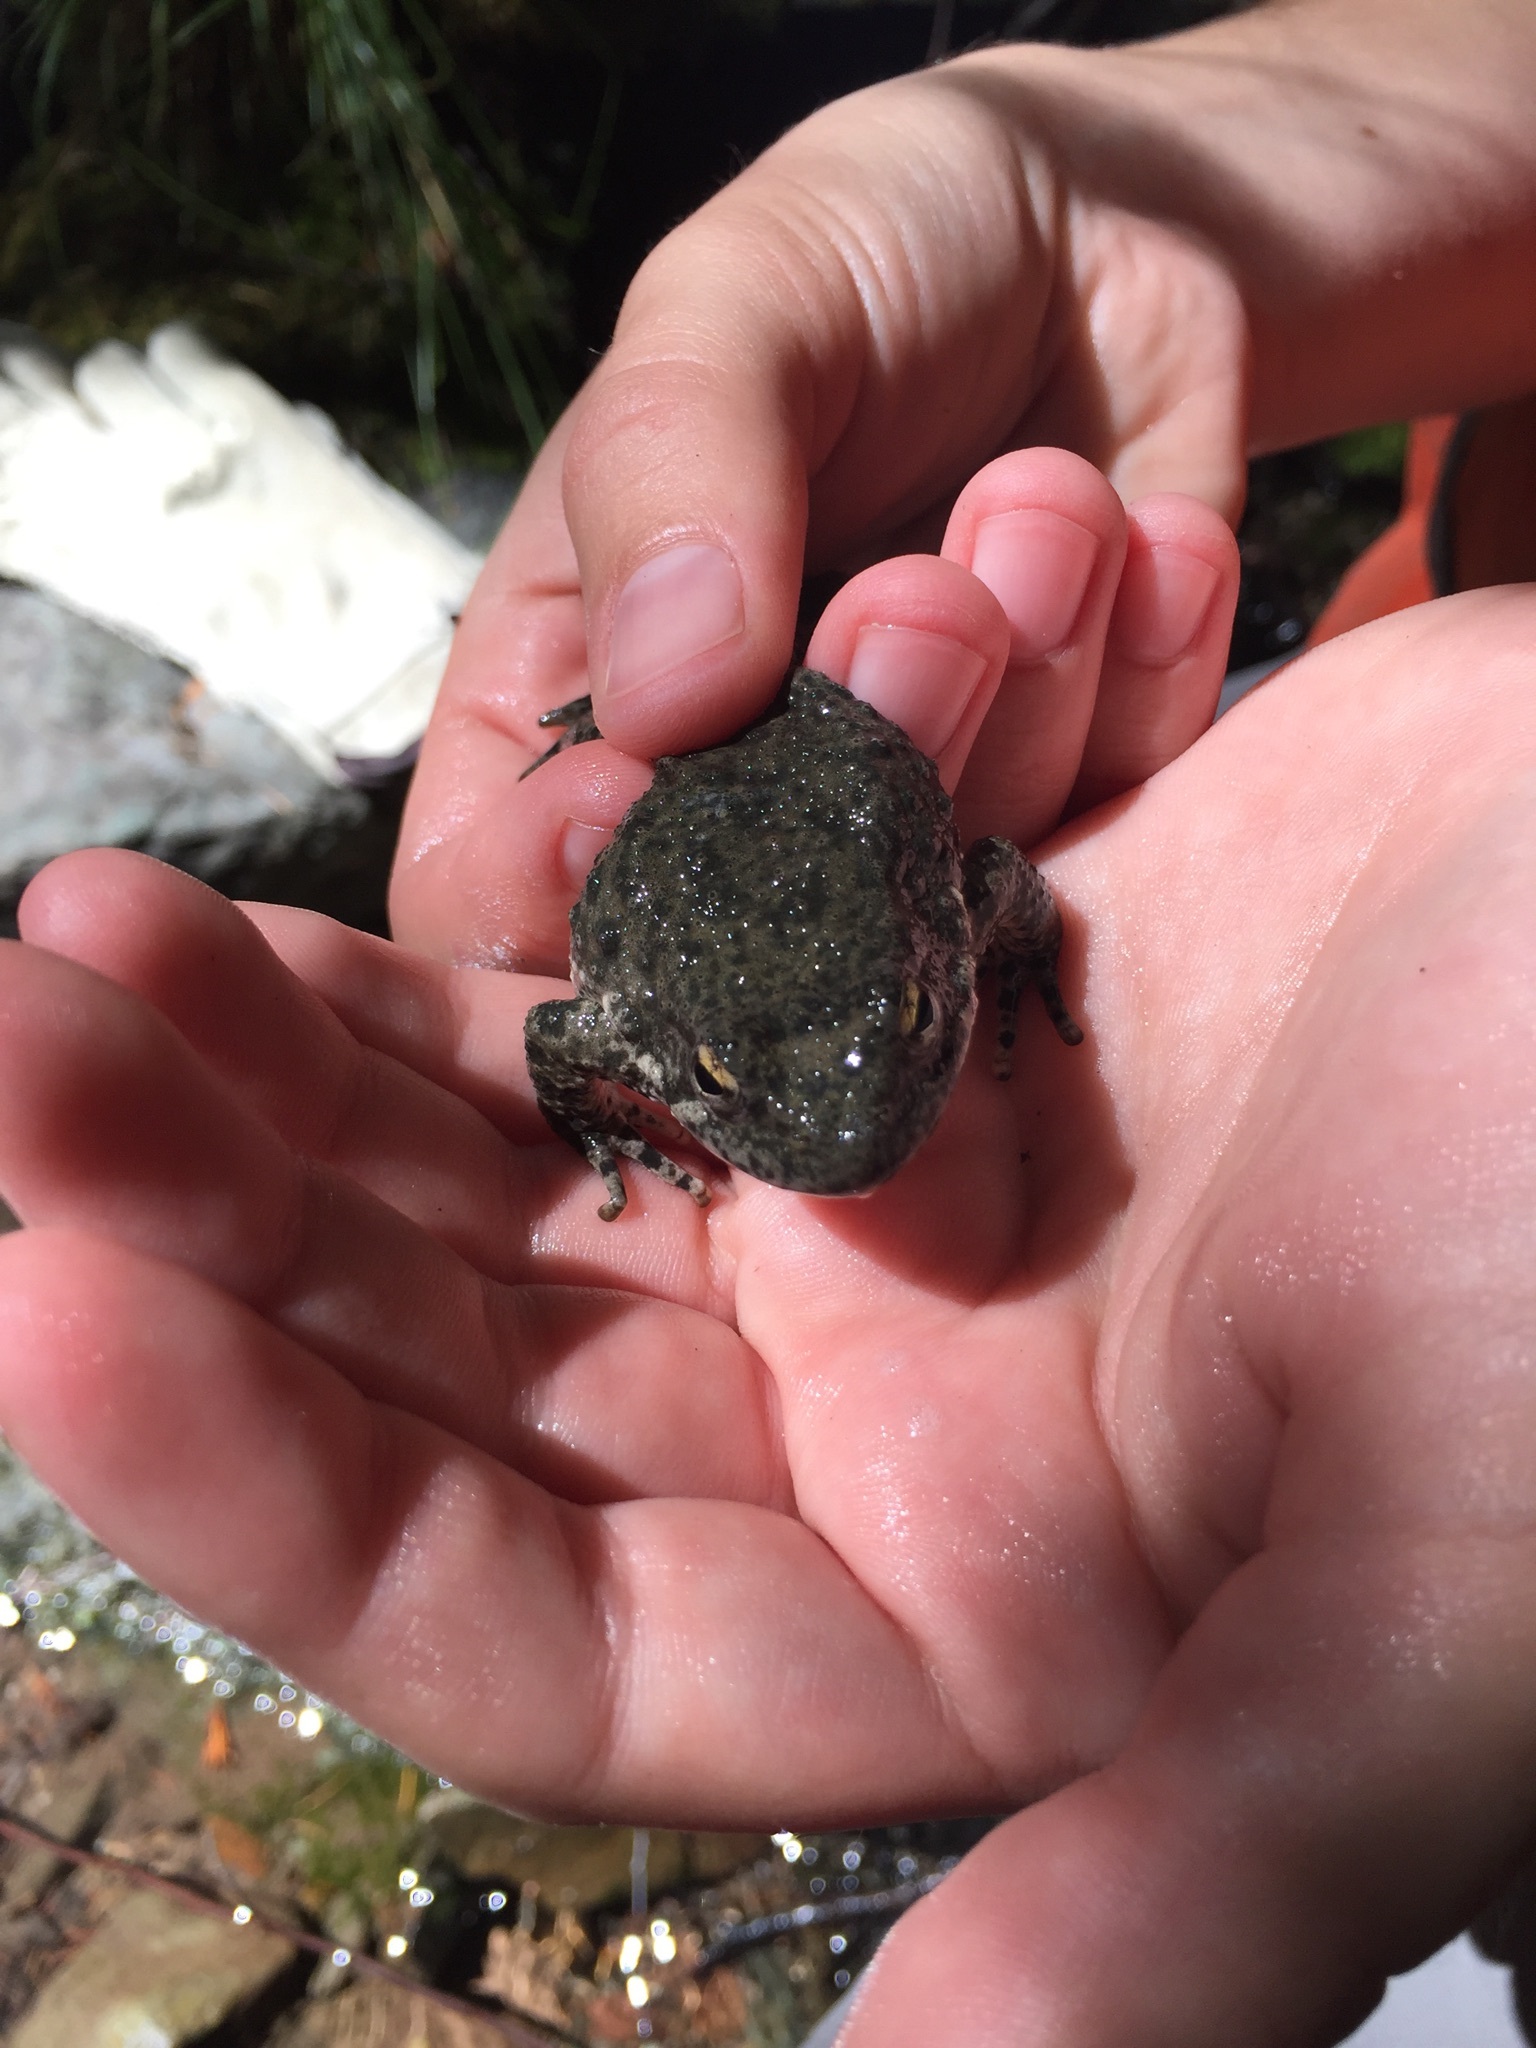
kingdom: Animalia
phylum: Chordata
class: Amphibia
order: Anura
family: Ranidae
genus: Rana
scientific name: Rana boylii
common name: Foothill yellow-legged frog
